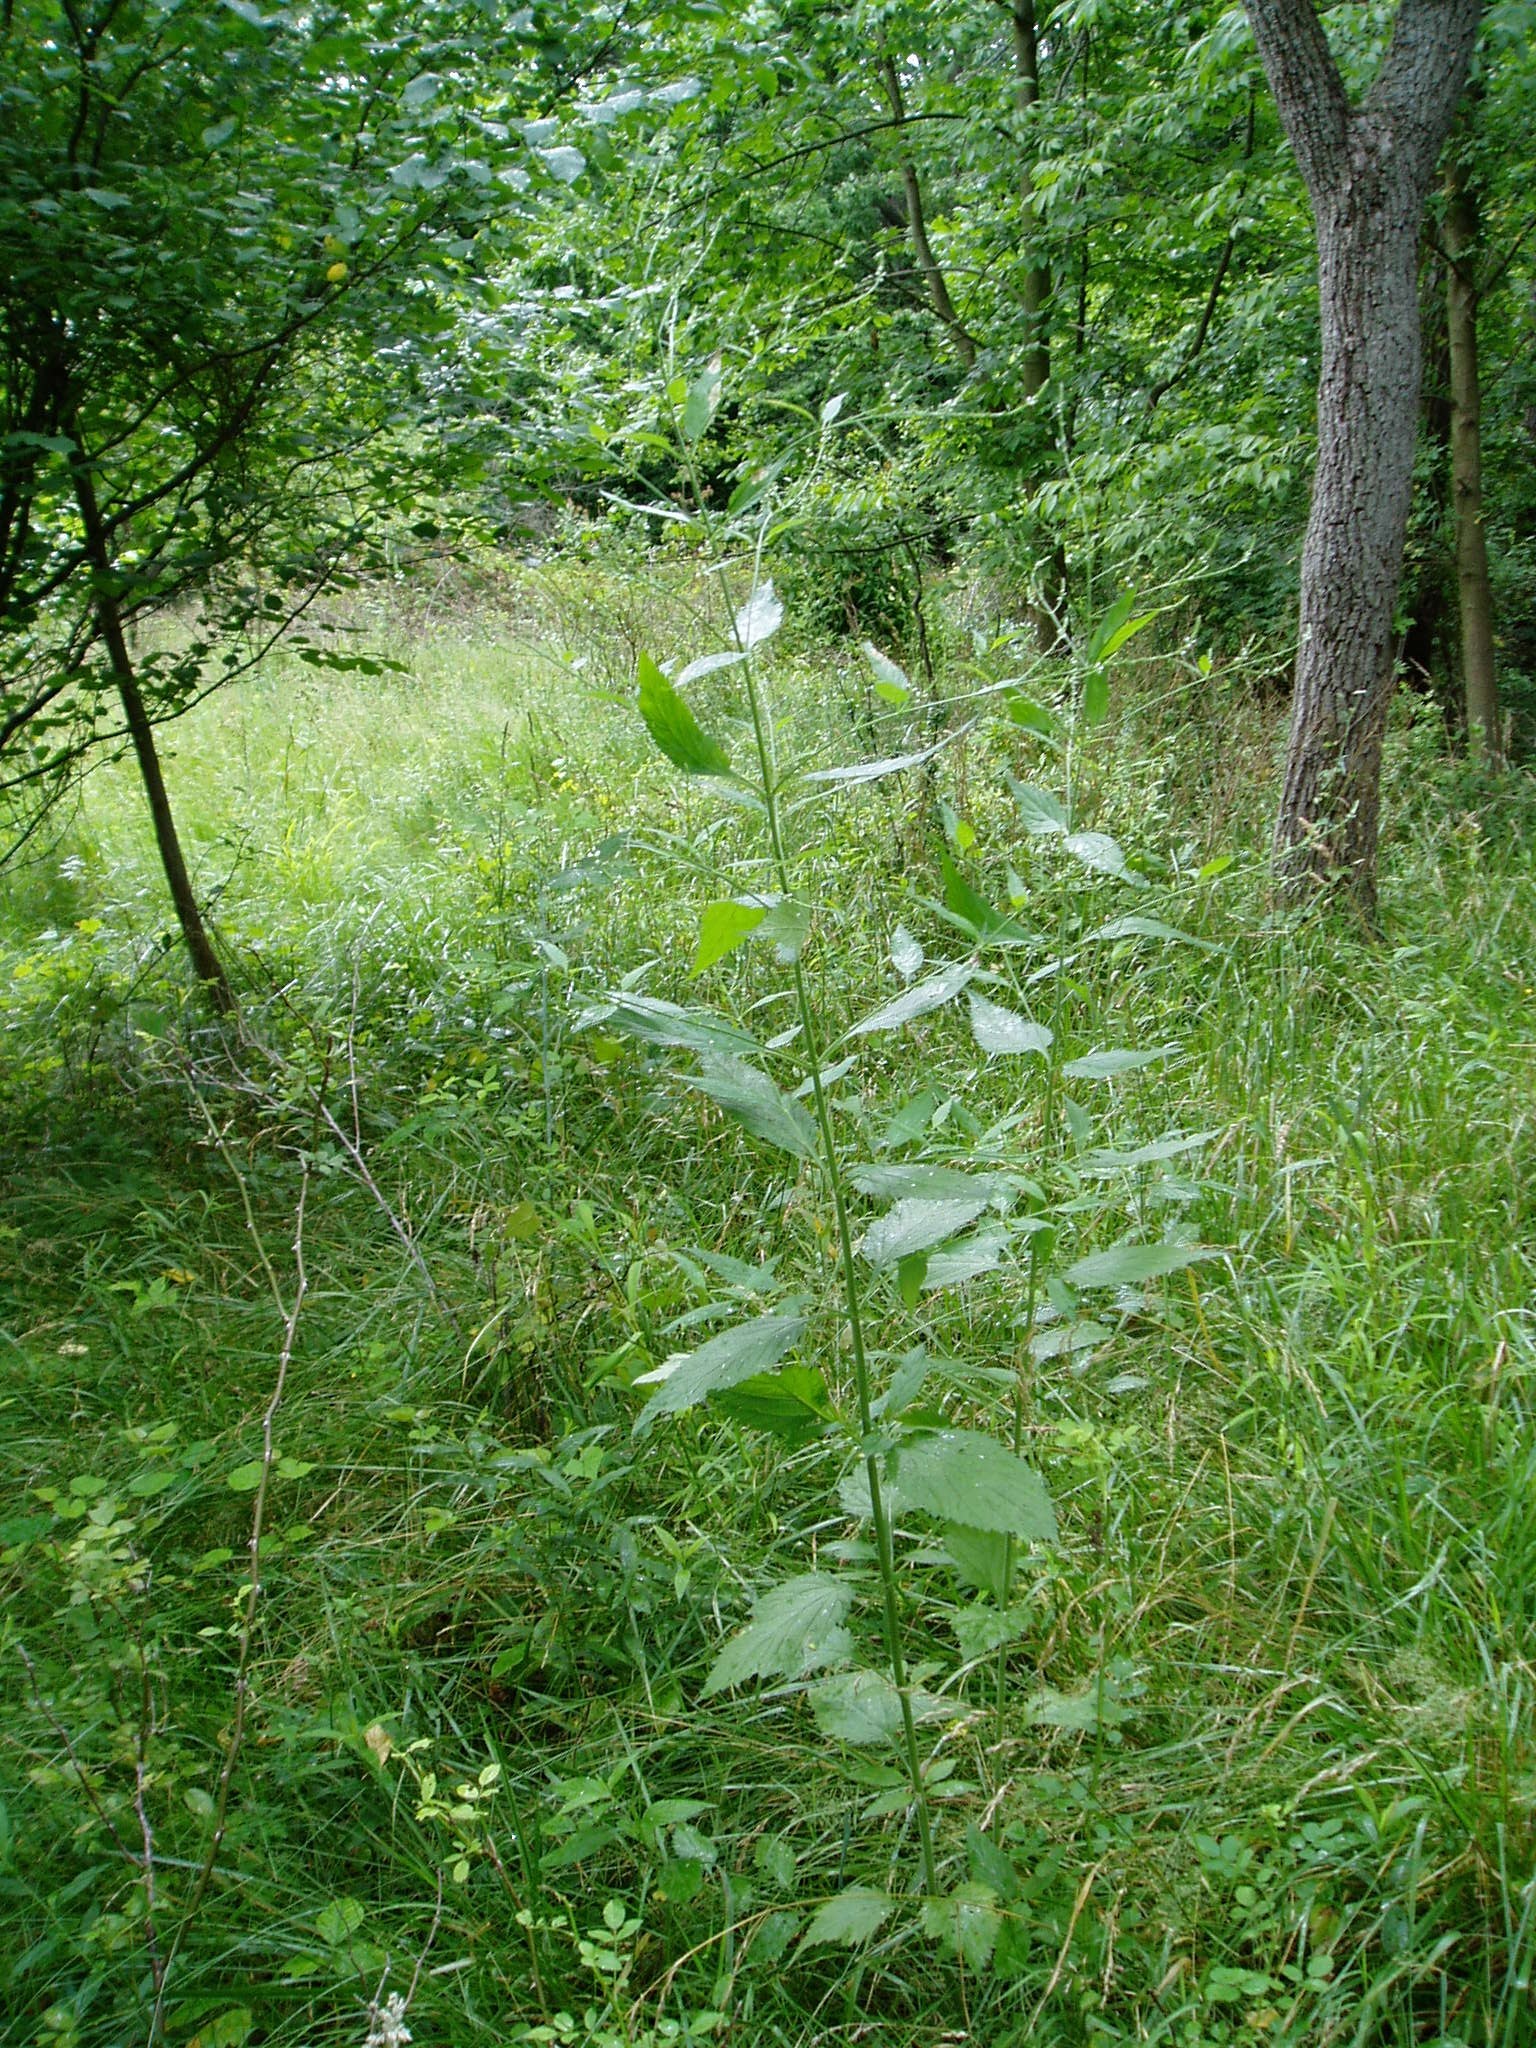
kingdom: Plantae
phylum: Tracheophyta
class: Magnoliopsida
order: Lamiales
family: Verbenaceae
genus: Verbena
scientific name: Verbena urticifolia
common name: Nettle-leaved vervain
